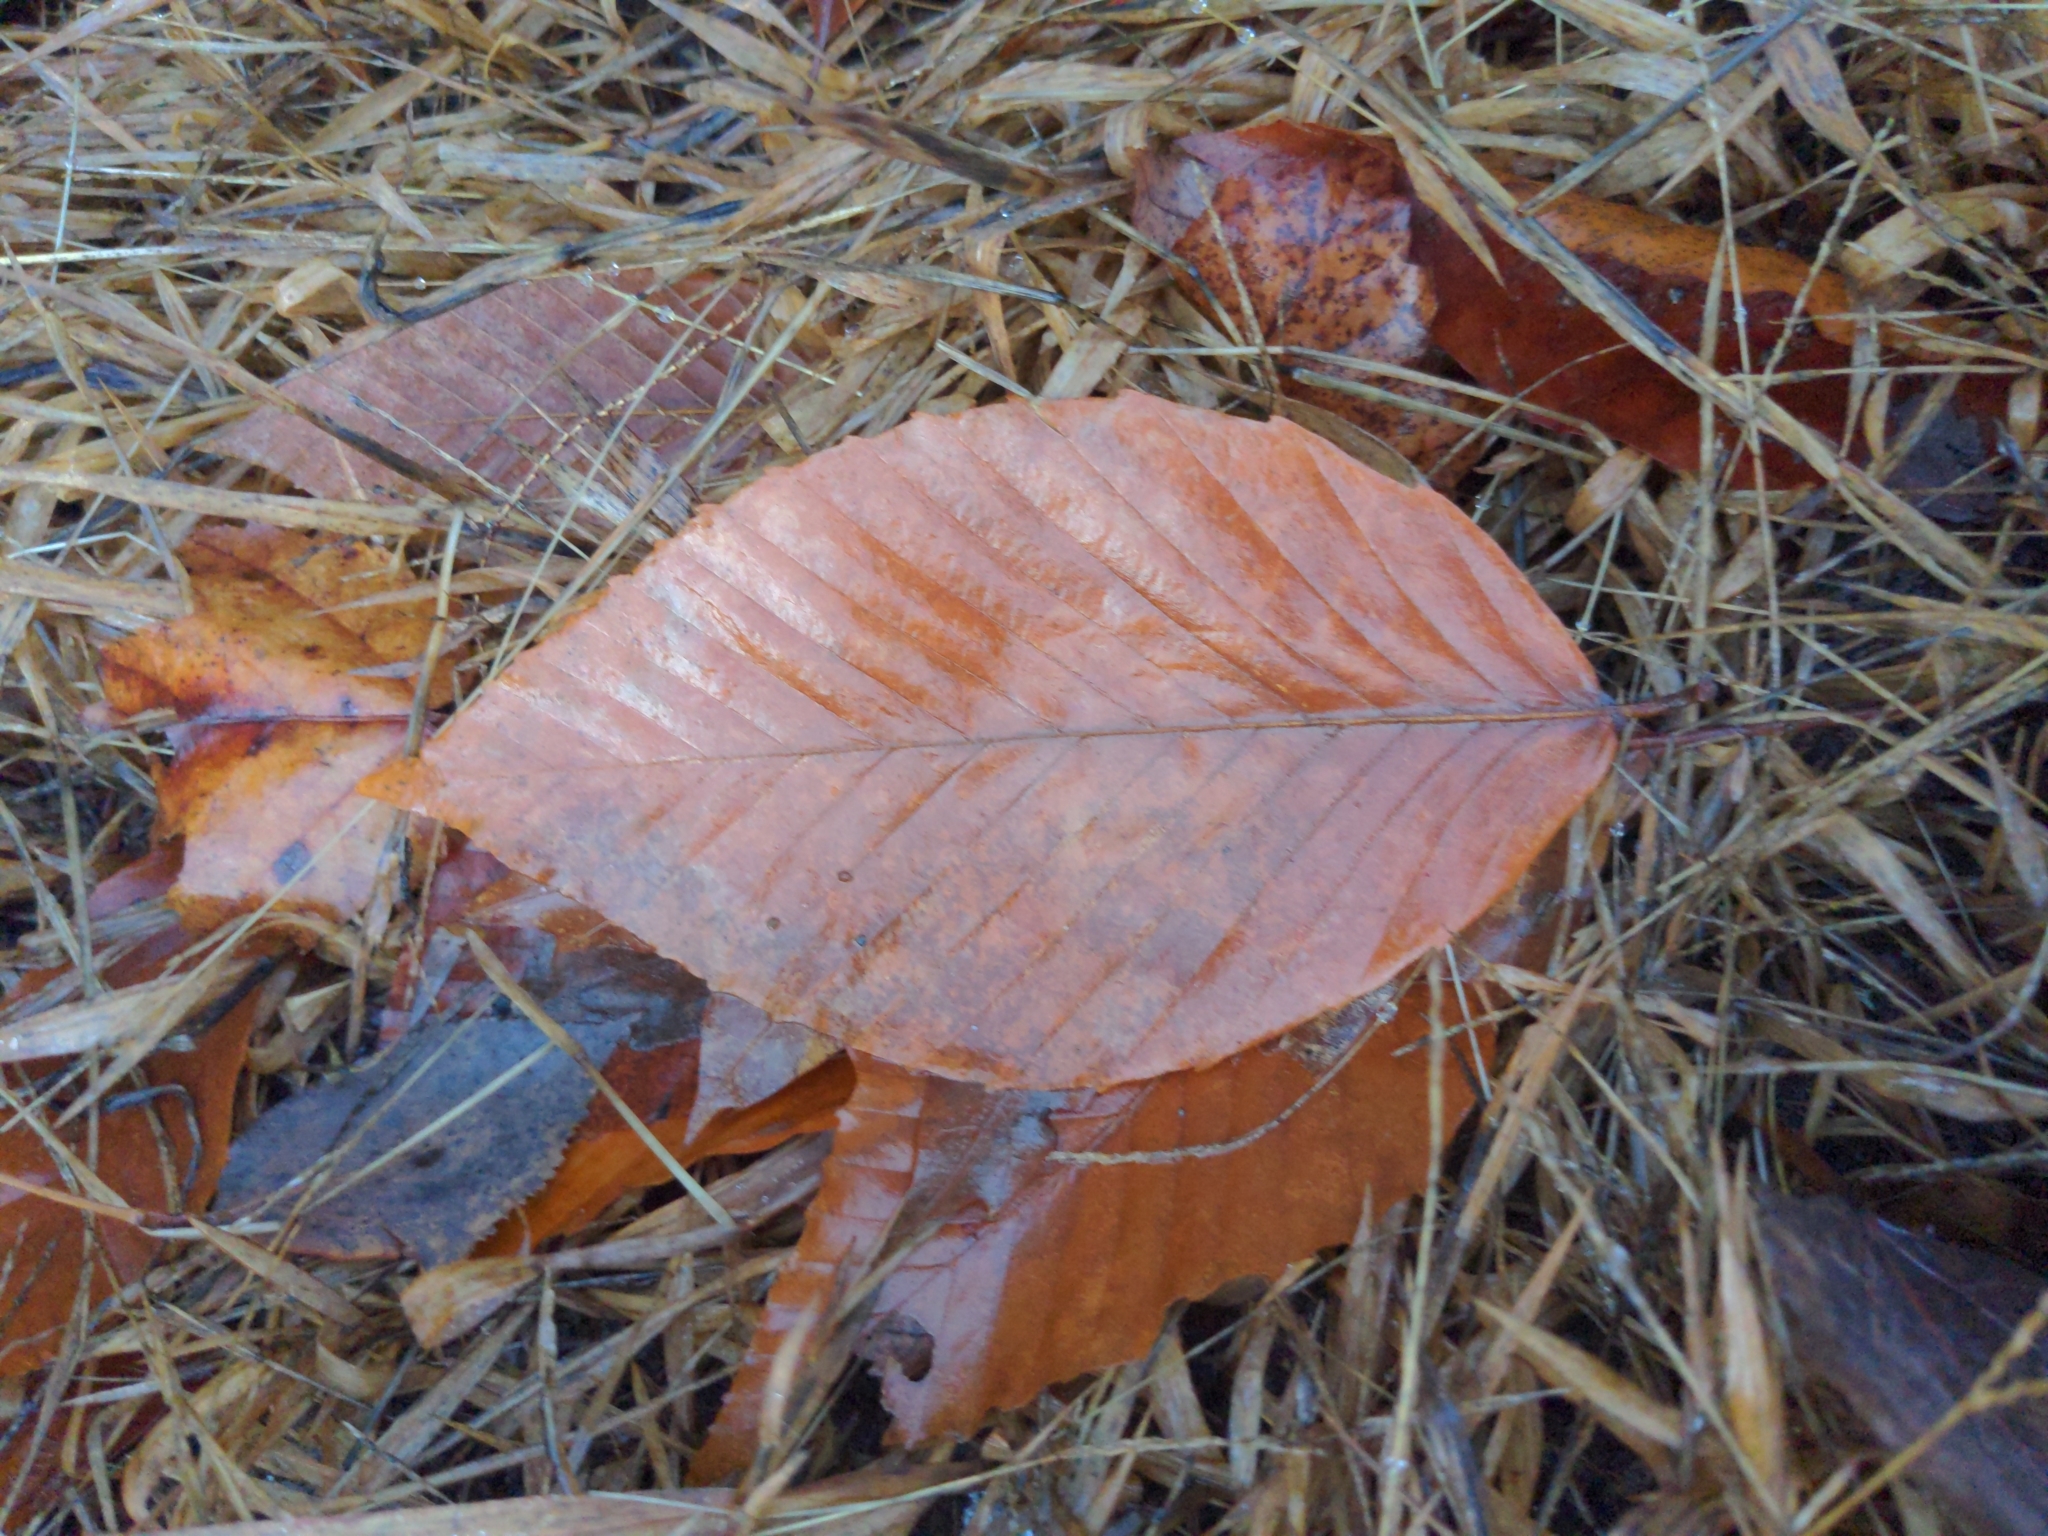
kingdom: Plantae
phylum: Tracheophyta
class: Magnoliopsida
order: Fagales
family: Fagaceae
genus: Fagus
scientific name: Fagus grandifolia
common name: American beech
